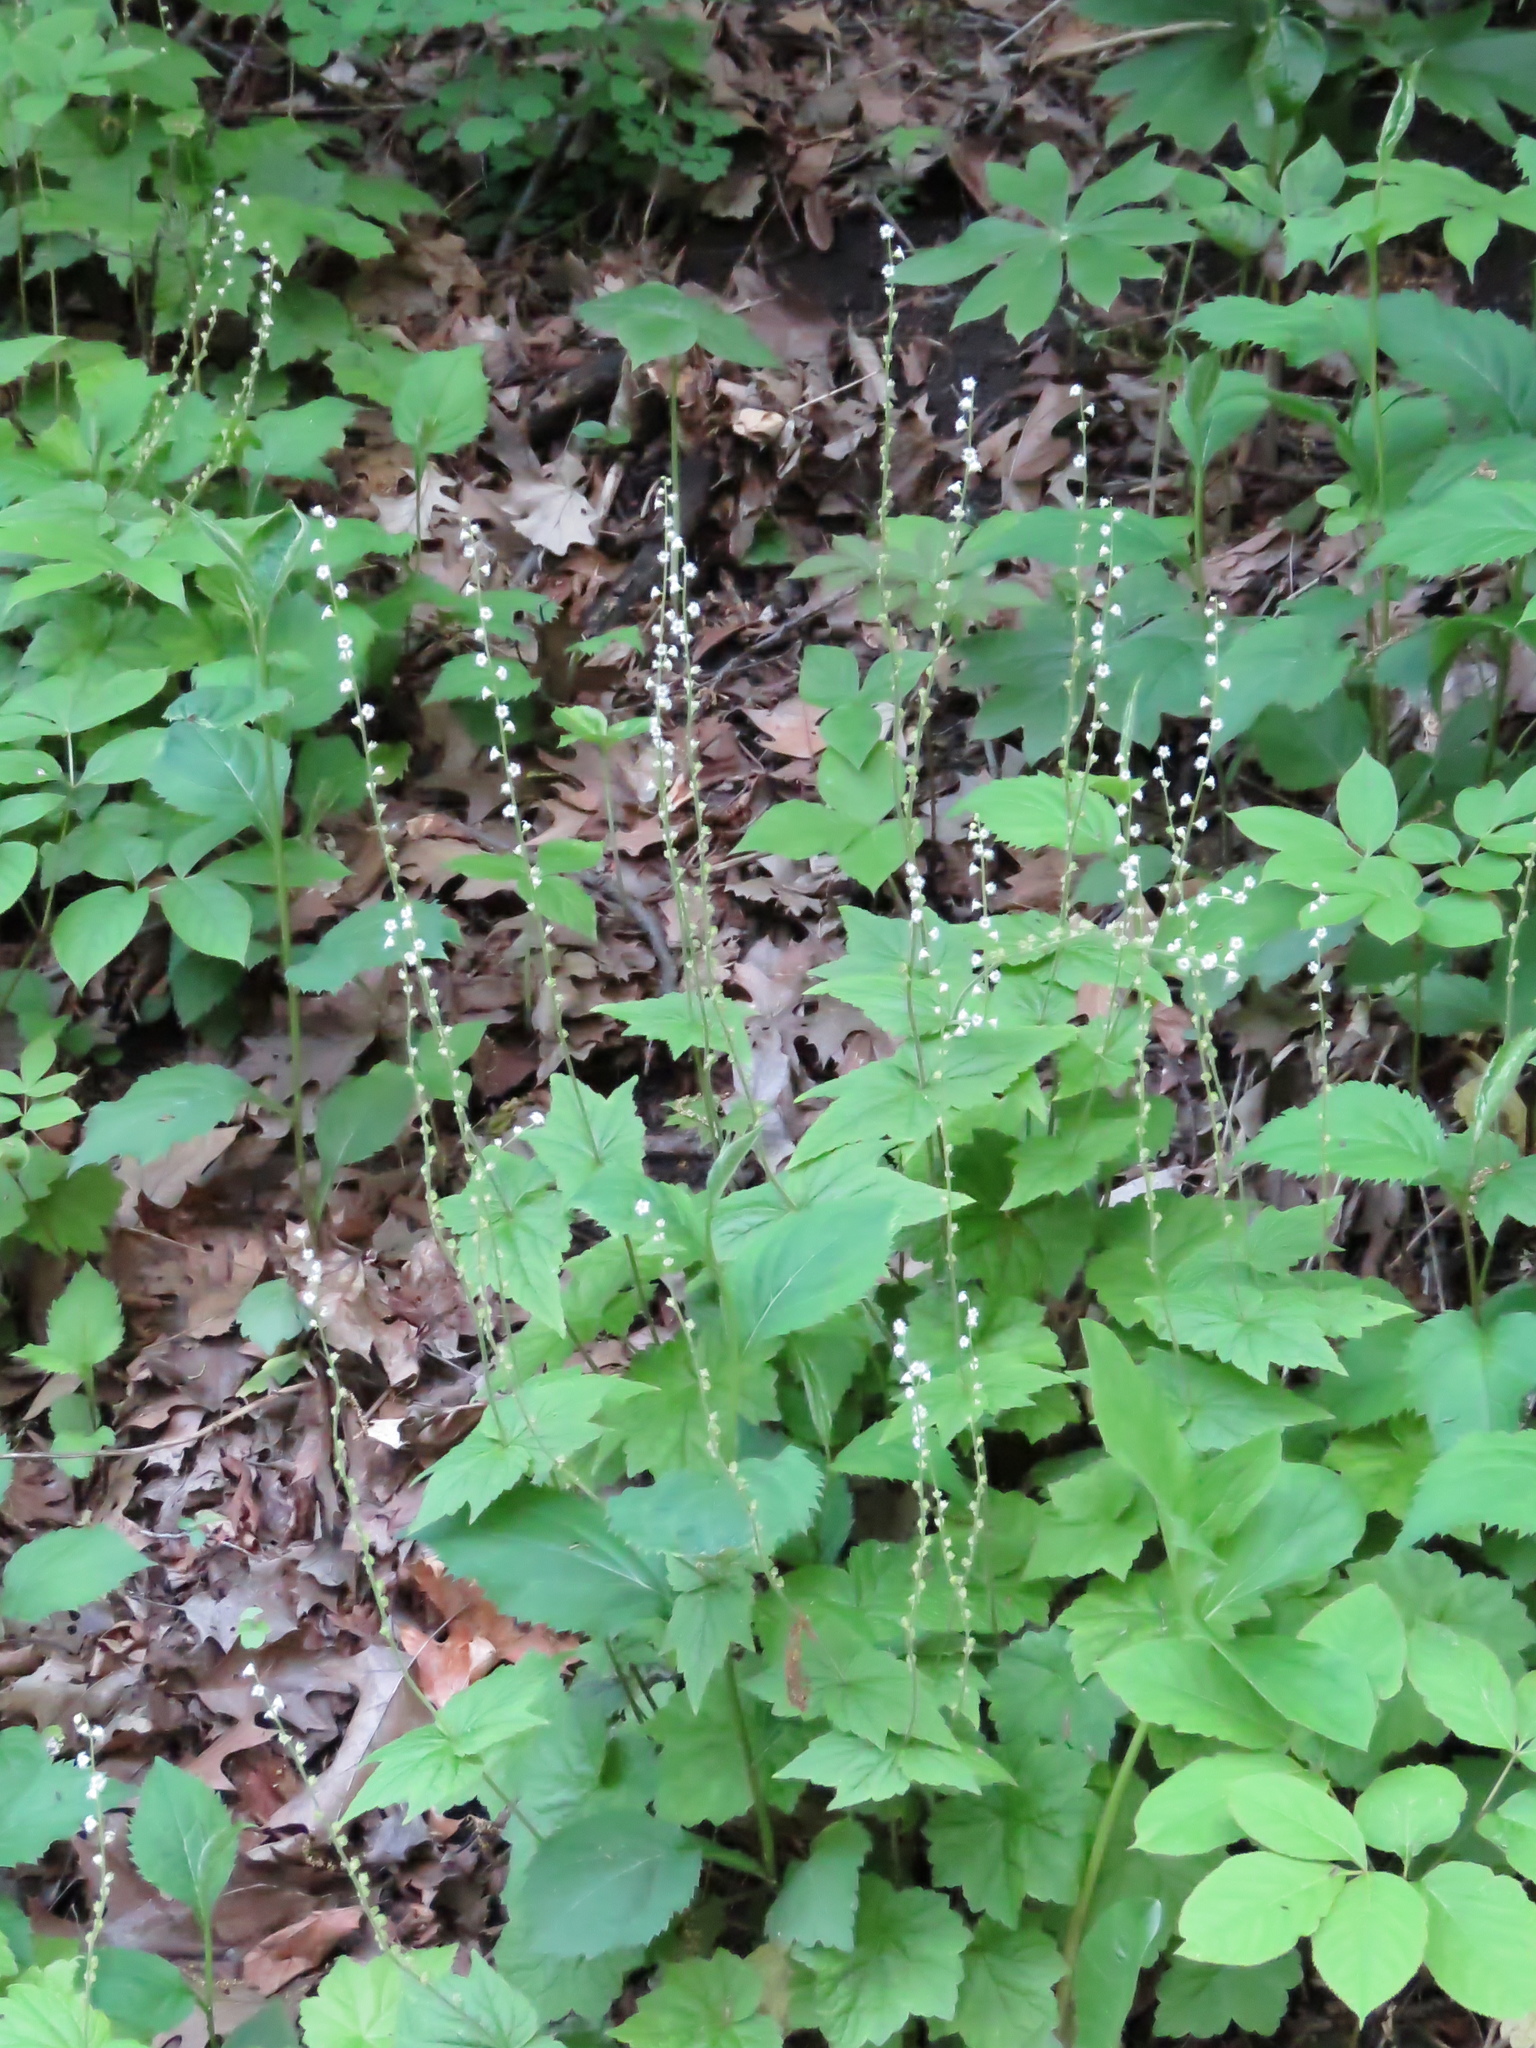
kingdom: Plantae
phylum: Tracheophyta
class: Magnoliopsida
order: Saxifragales
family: Saxifragaceae
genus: Mitella
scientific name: Mitella diphylla
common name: Coolwort
